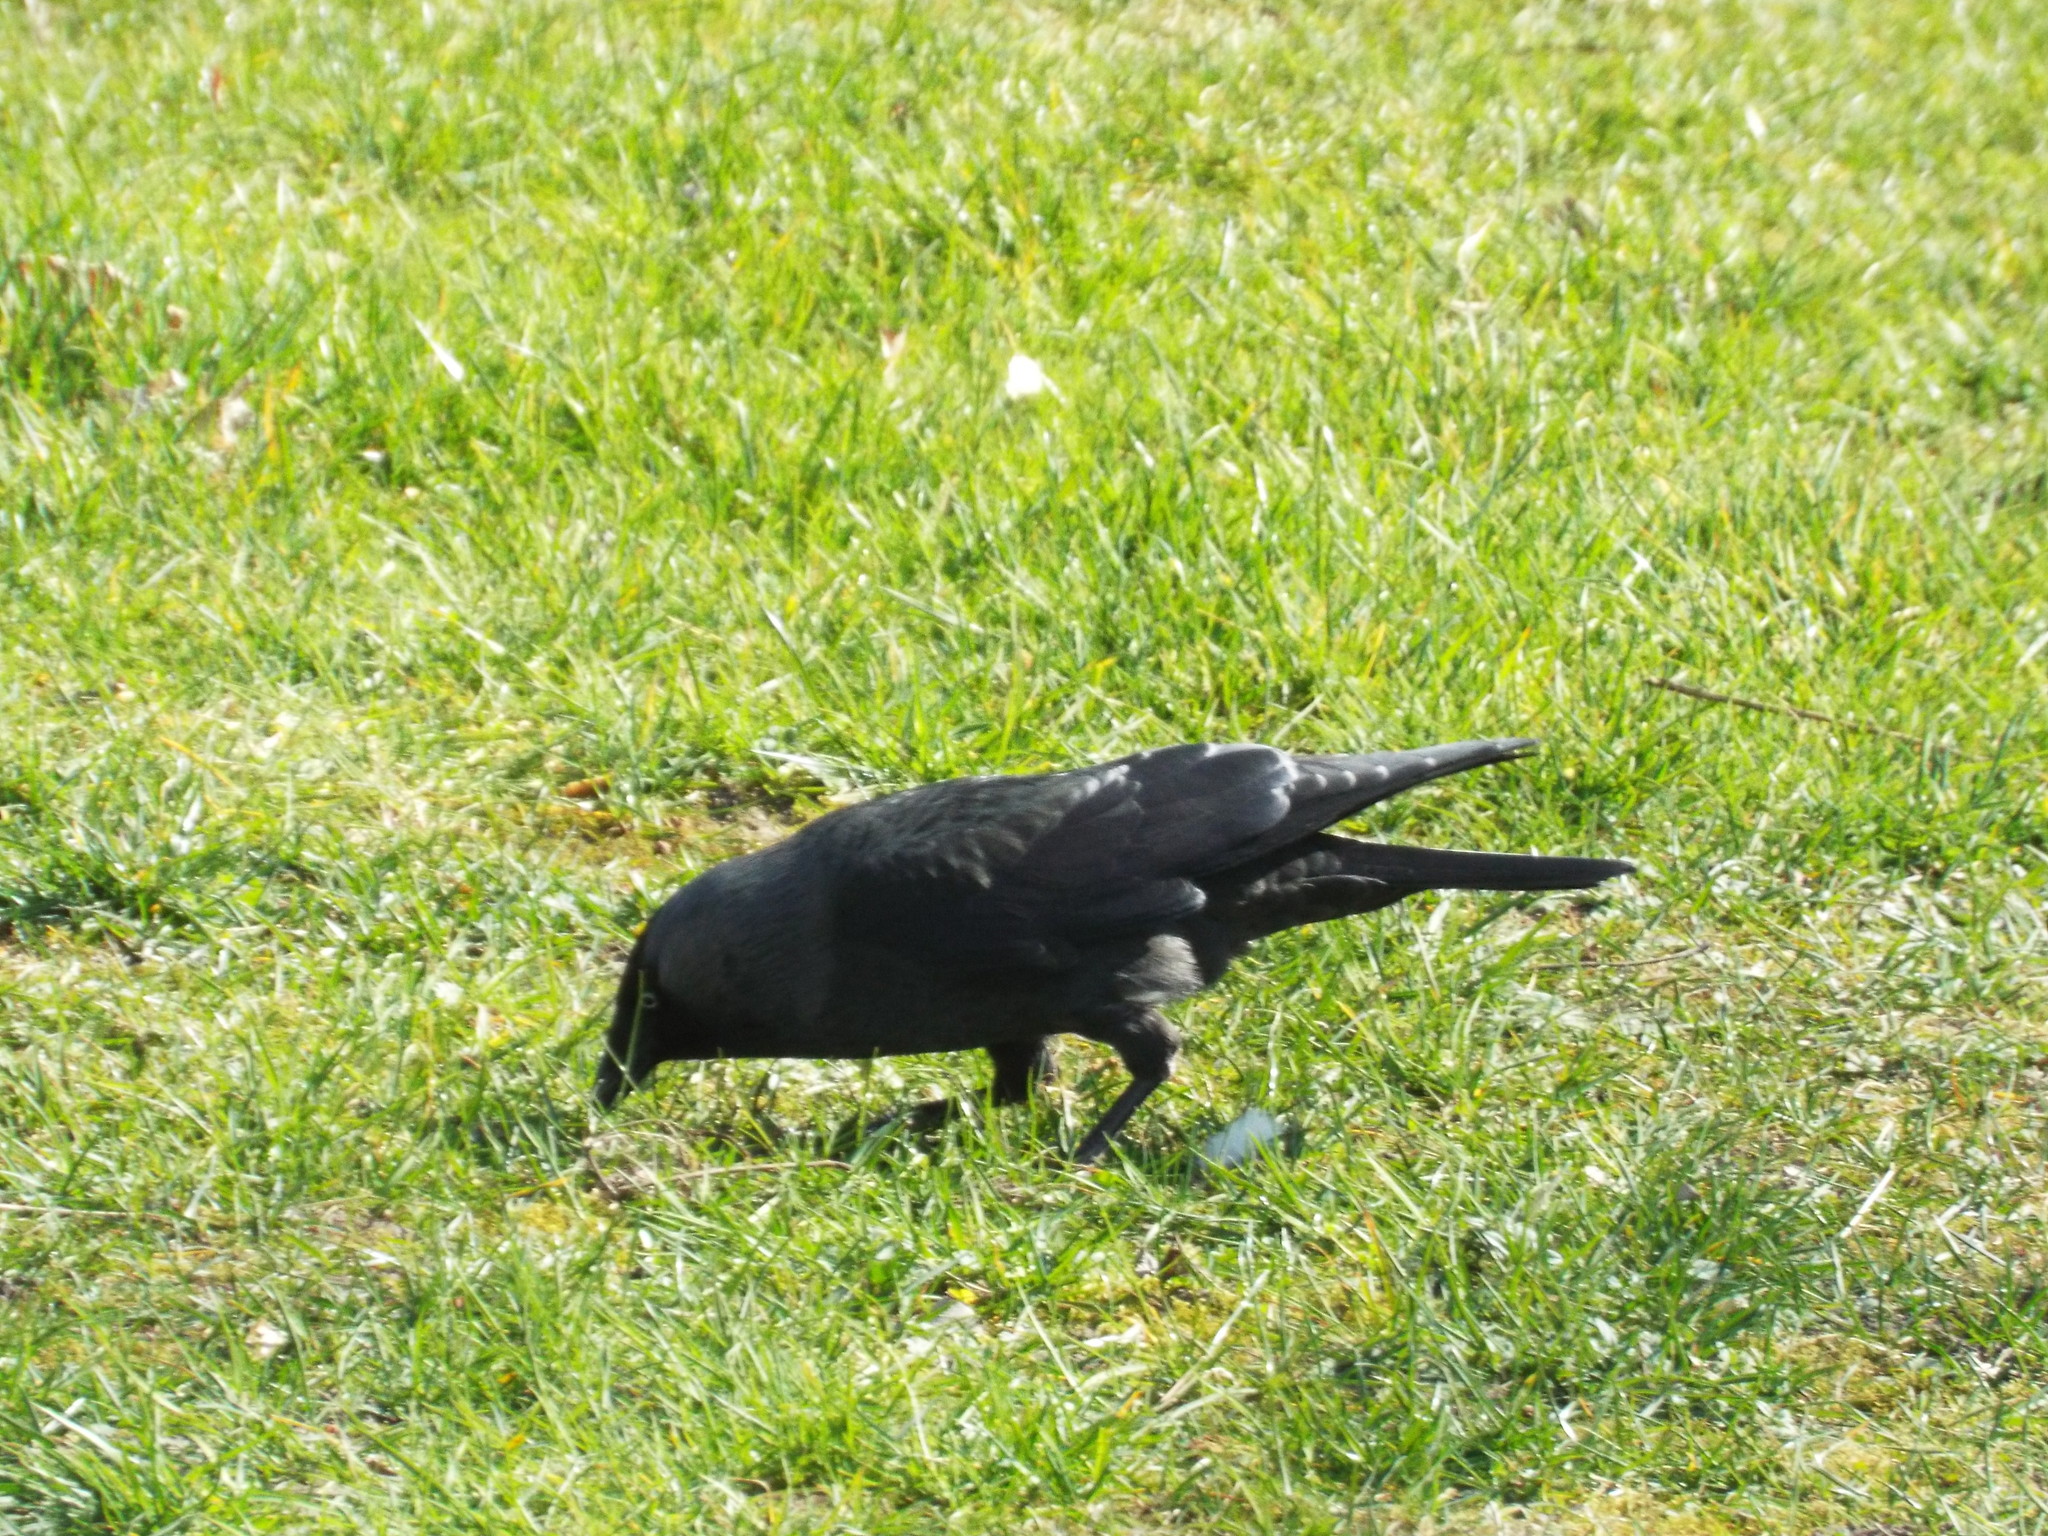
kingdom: Animalia
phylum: Chordata
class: Aves
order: Passeriformes
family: Corvidae
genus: Coloeus
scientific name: Coloeus monedula
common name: Western jackdaw
